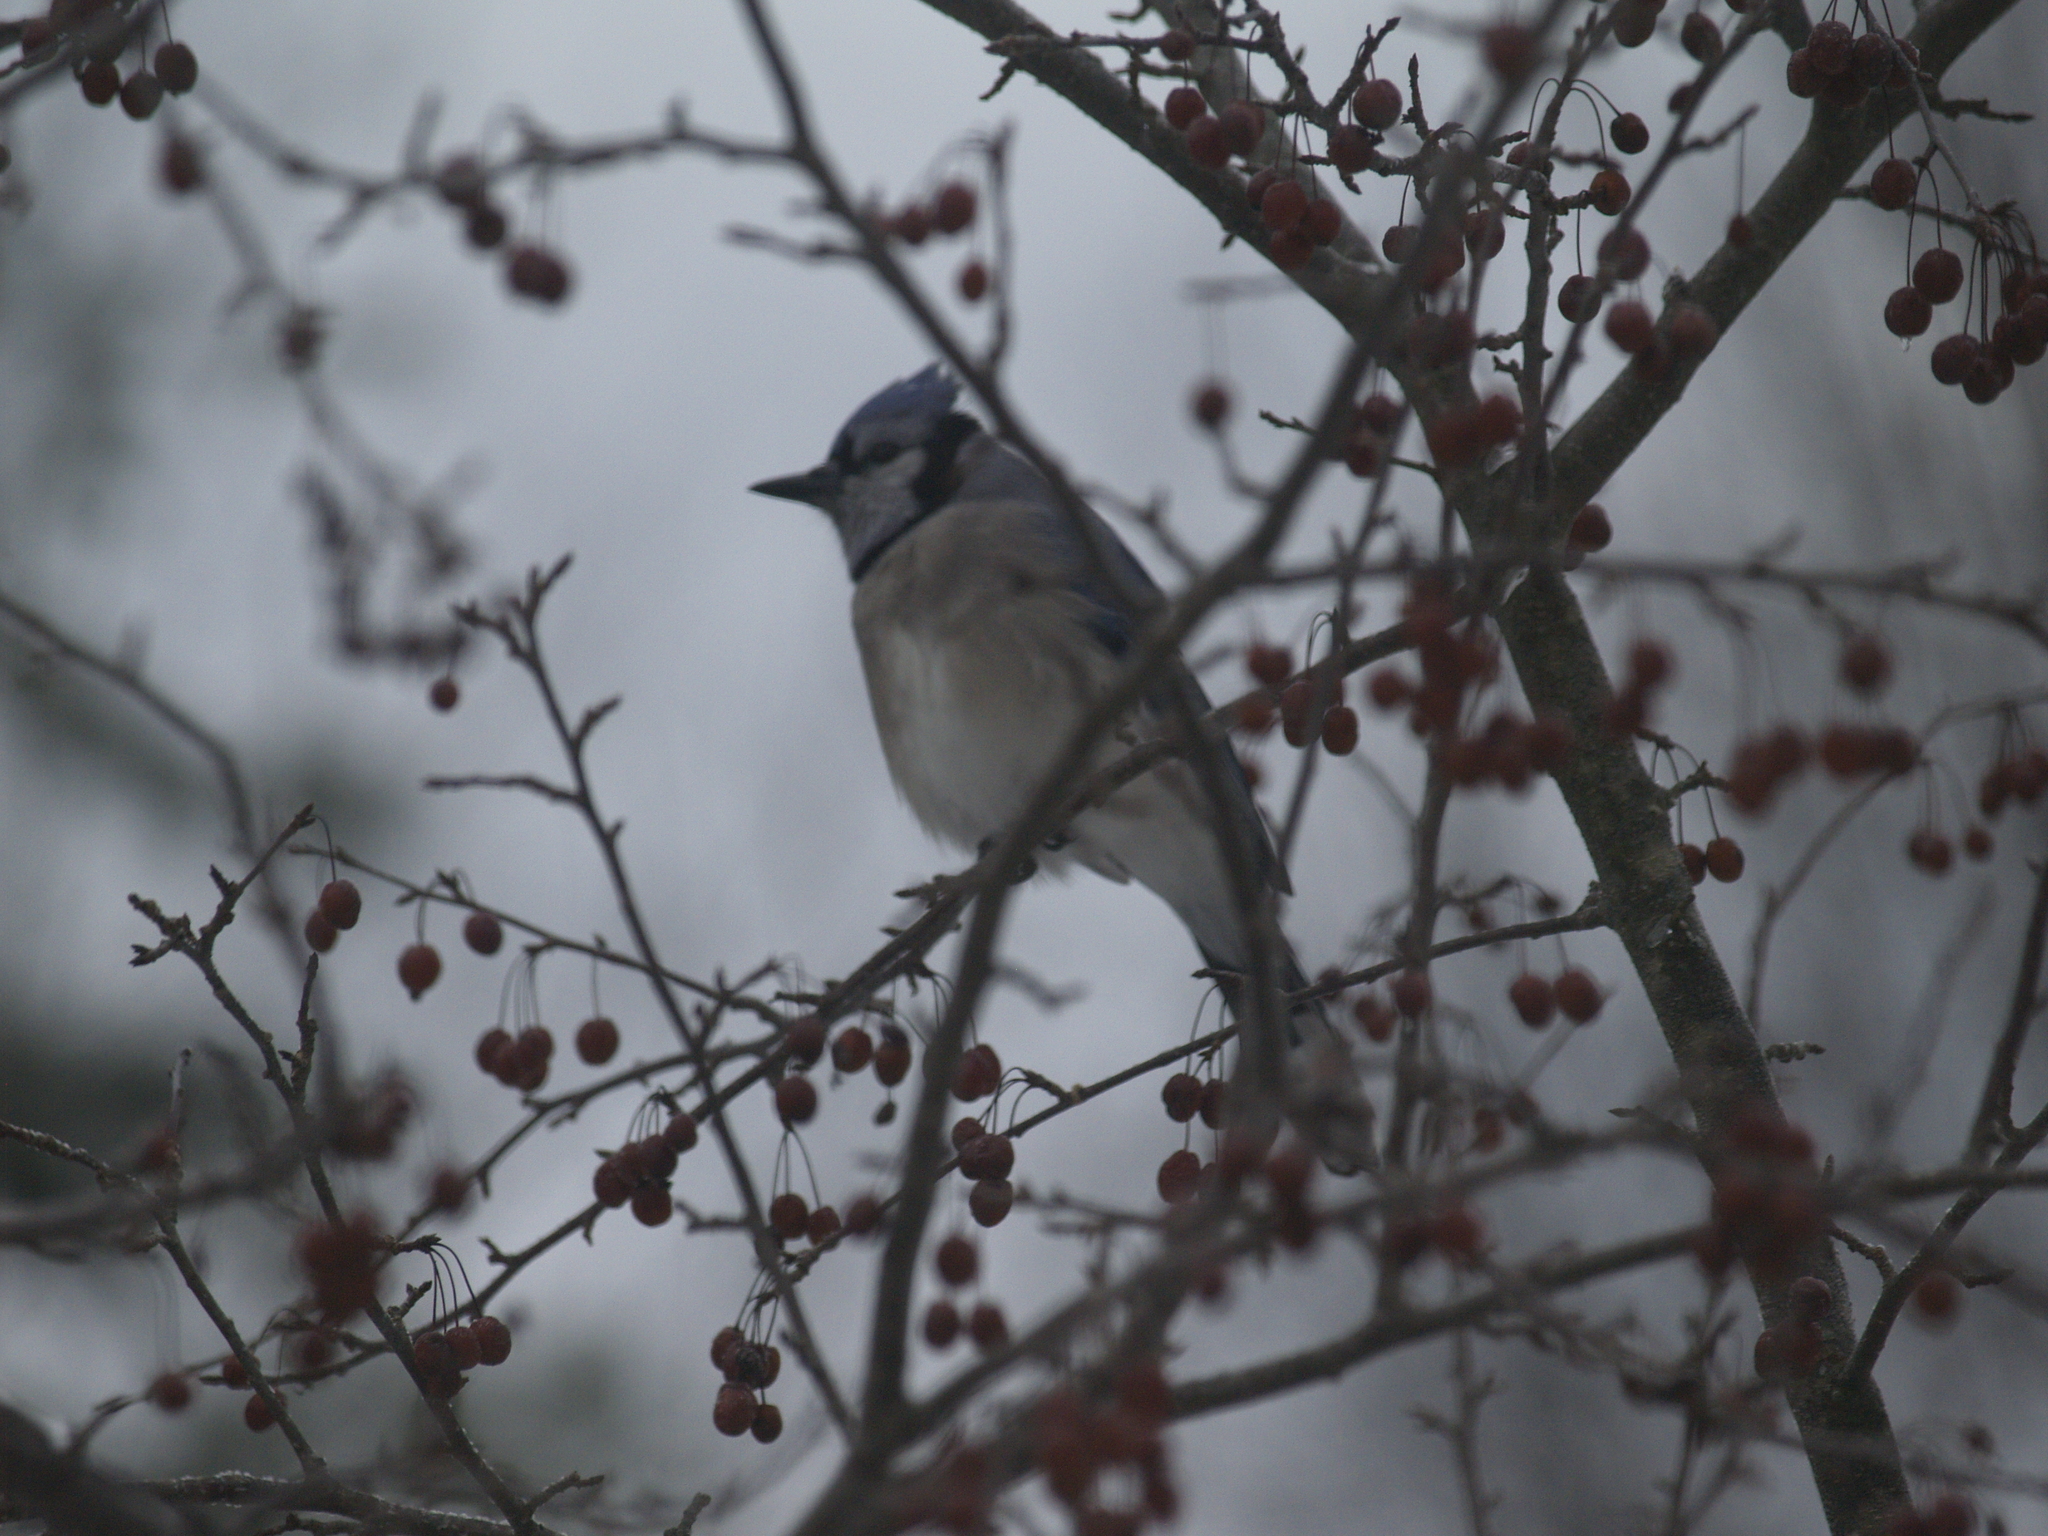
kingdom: Animalia
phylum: Chordata
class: Aves
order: Passeriformes
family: Corvidae
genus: Cyanocitta
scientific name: Cyanocitta cristata
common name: Blue jay
